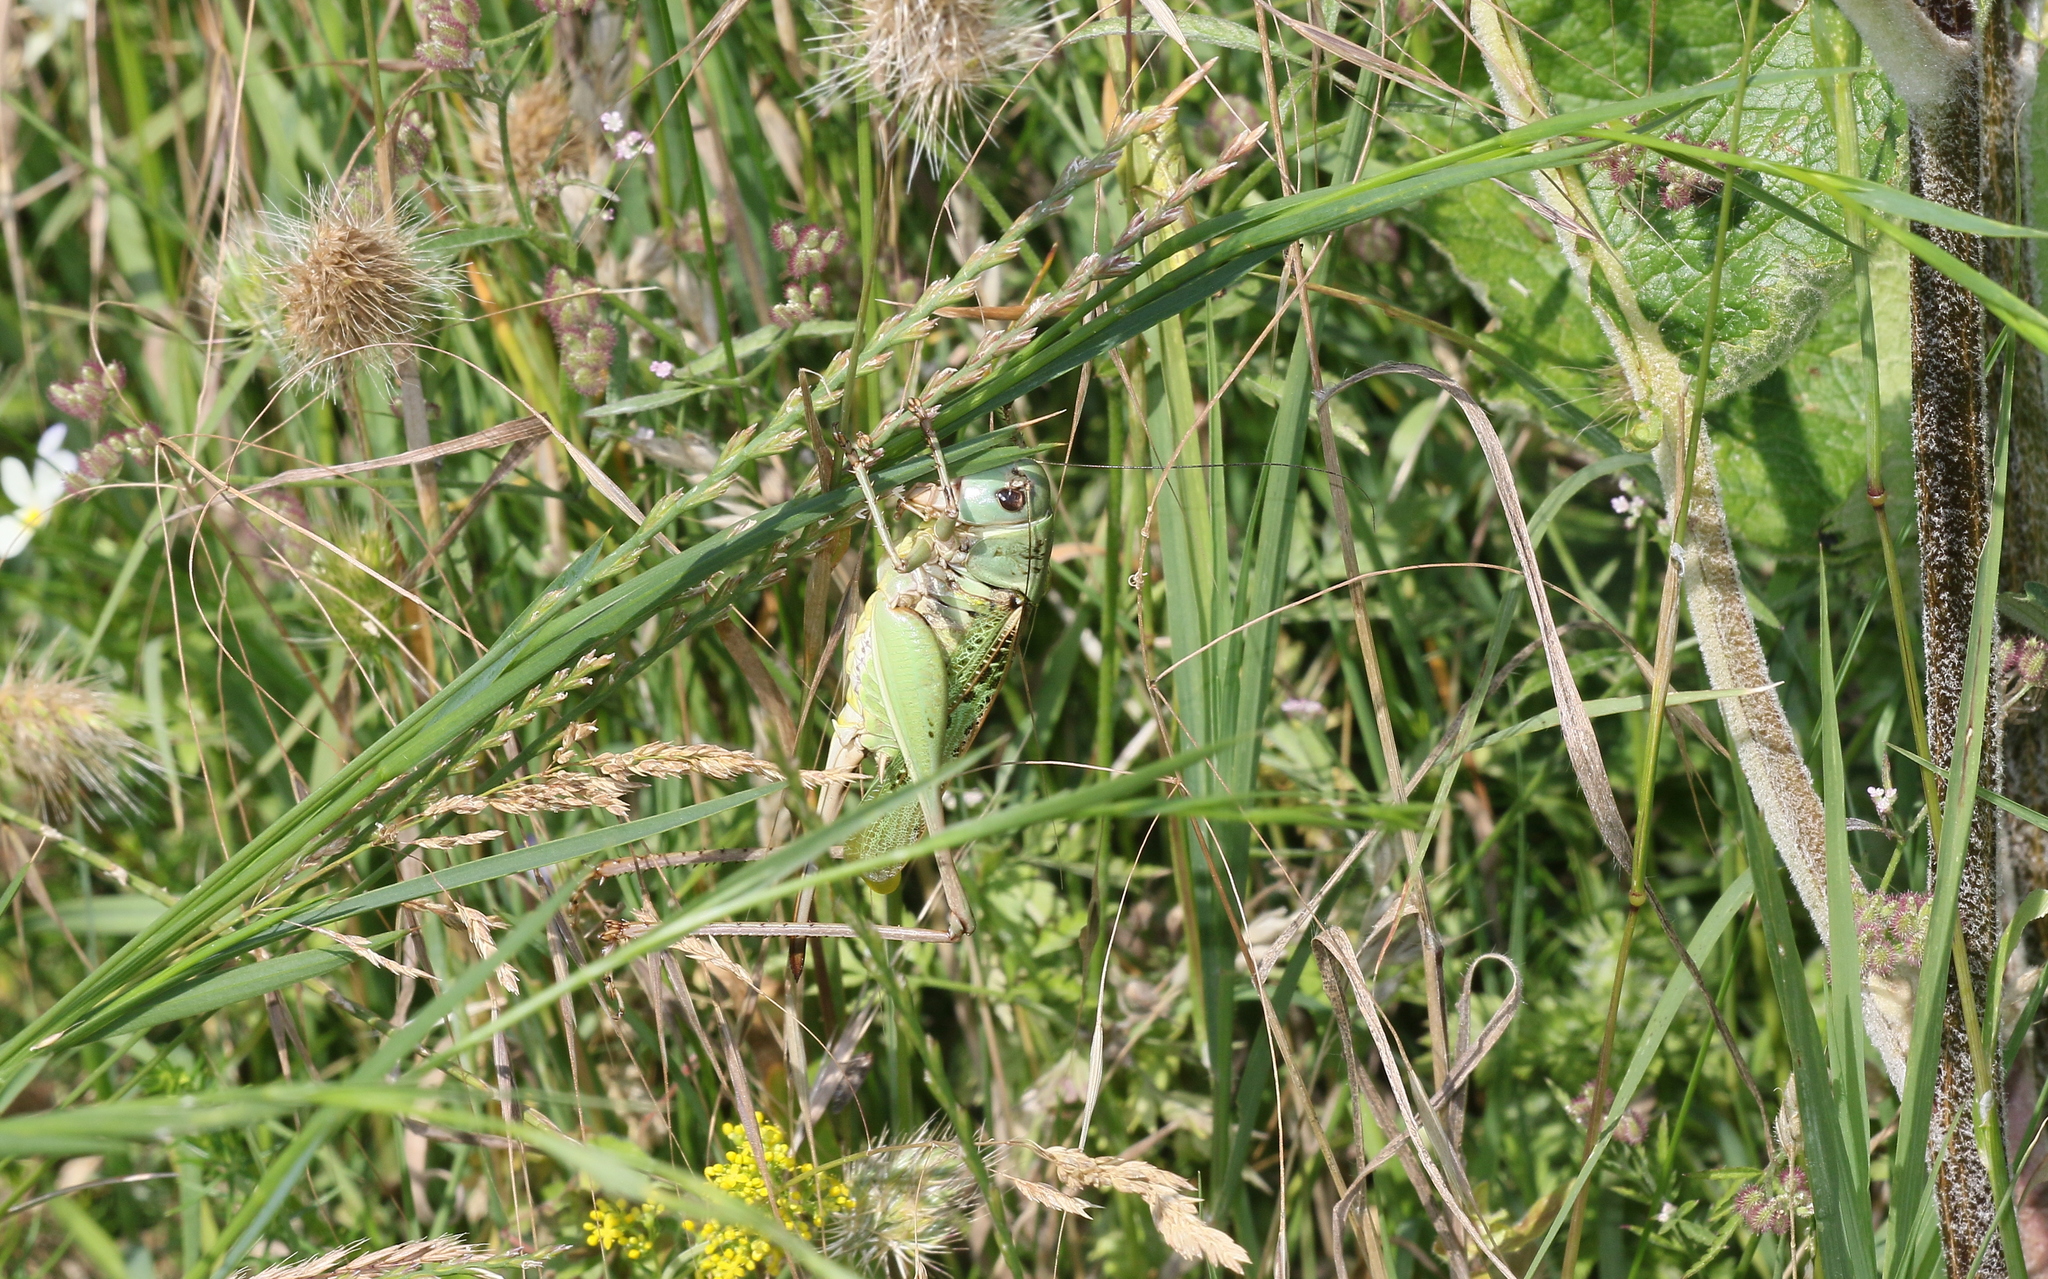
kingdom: Animalia
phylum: Arthropoda
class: Insecta
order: Orthoptera
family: Tettigoniidae
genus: Decticus
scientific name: Decticus verrucivorus
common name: Wart-biter
